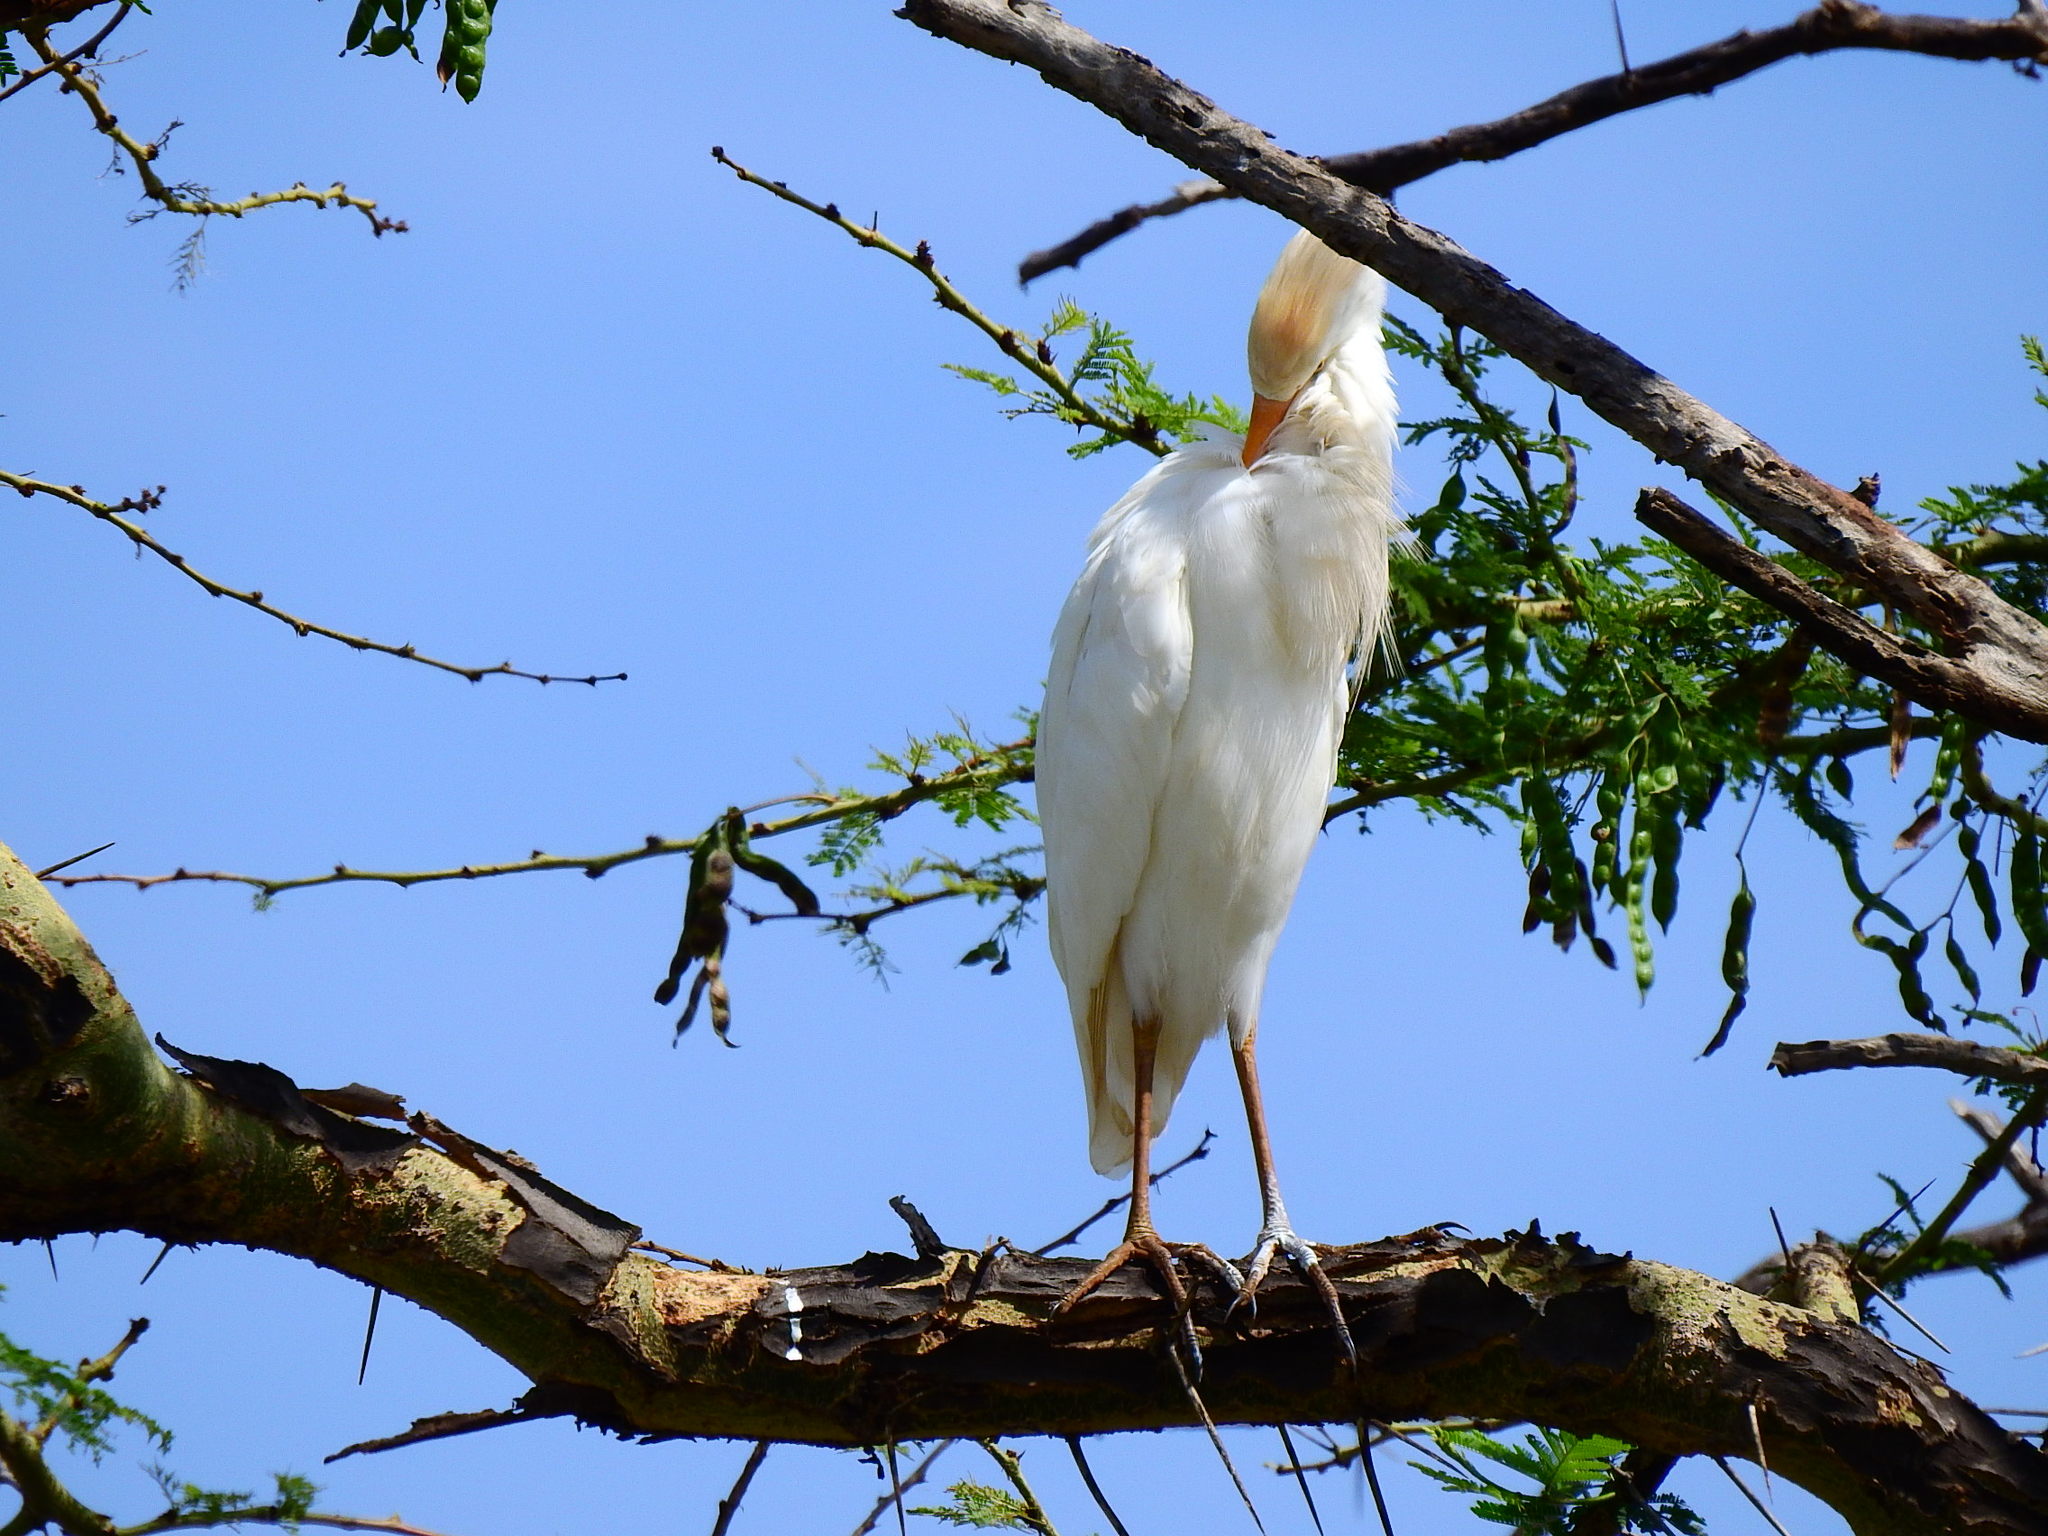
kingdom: Animalia
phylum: Chordata
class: Aves
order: Pelecaniformes
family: Ardeidae
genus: Bubulcus
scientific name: Bubulcus ibis
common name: Cattle egret
